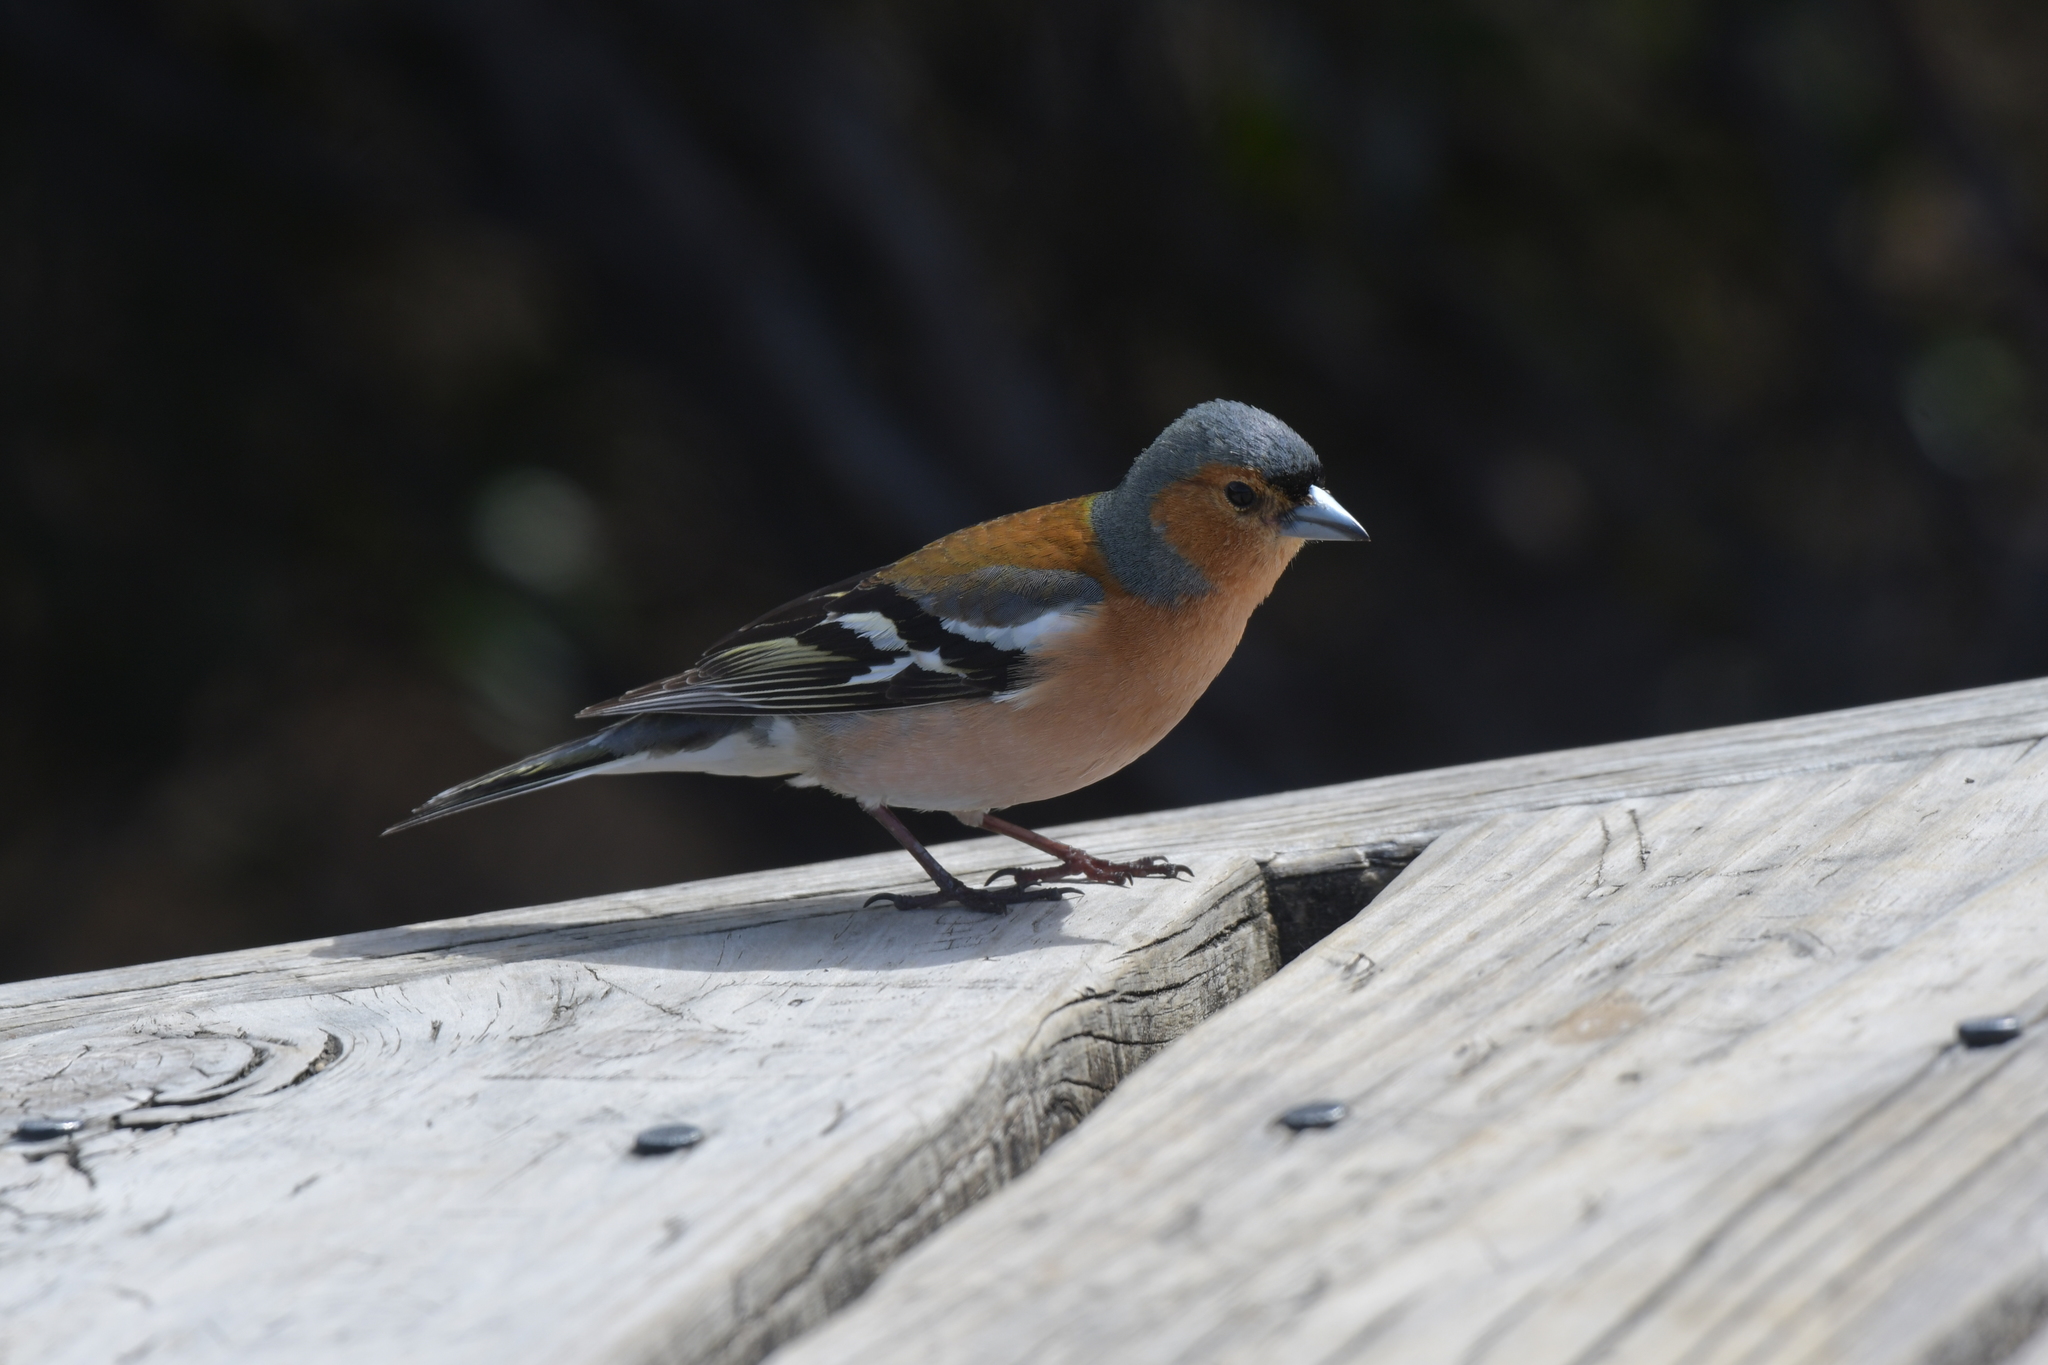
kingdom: Animalia
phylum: Chordata
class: Aves
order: Passeriformes
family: Fringillidae
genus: Fringilla
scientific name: Fringilla coelebs
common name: Common chaffinch
